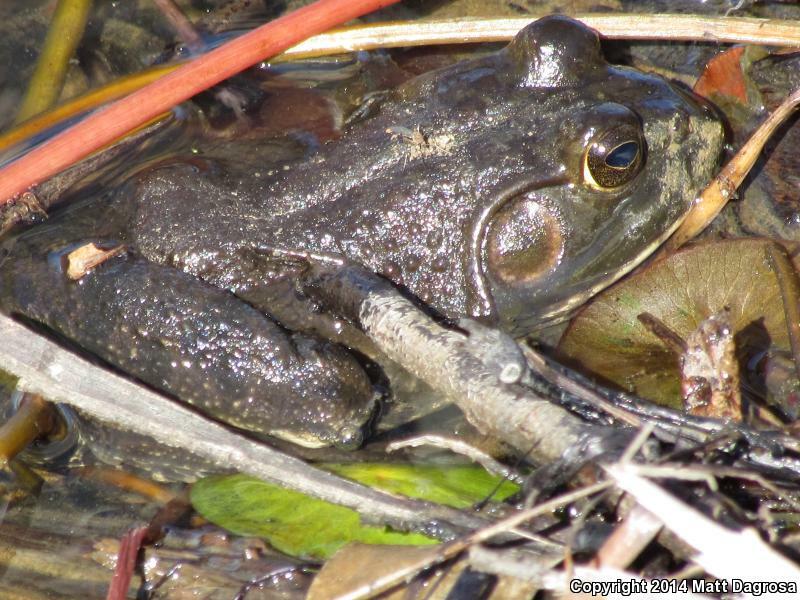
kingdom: Animalia
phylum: Chordata
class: Amphibia
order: Anura
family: Ranidae
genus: Lithobates
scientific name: Lithobates catesbeianus
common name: American bullfrog
